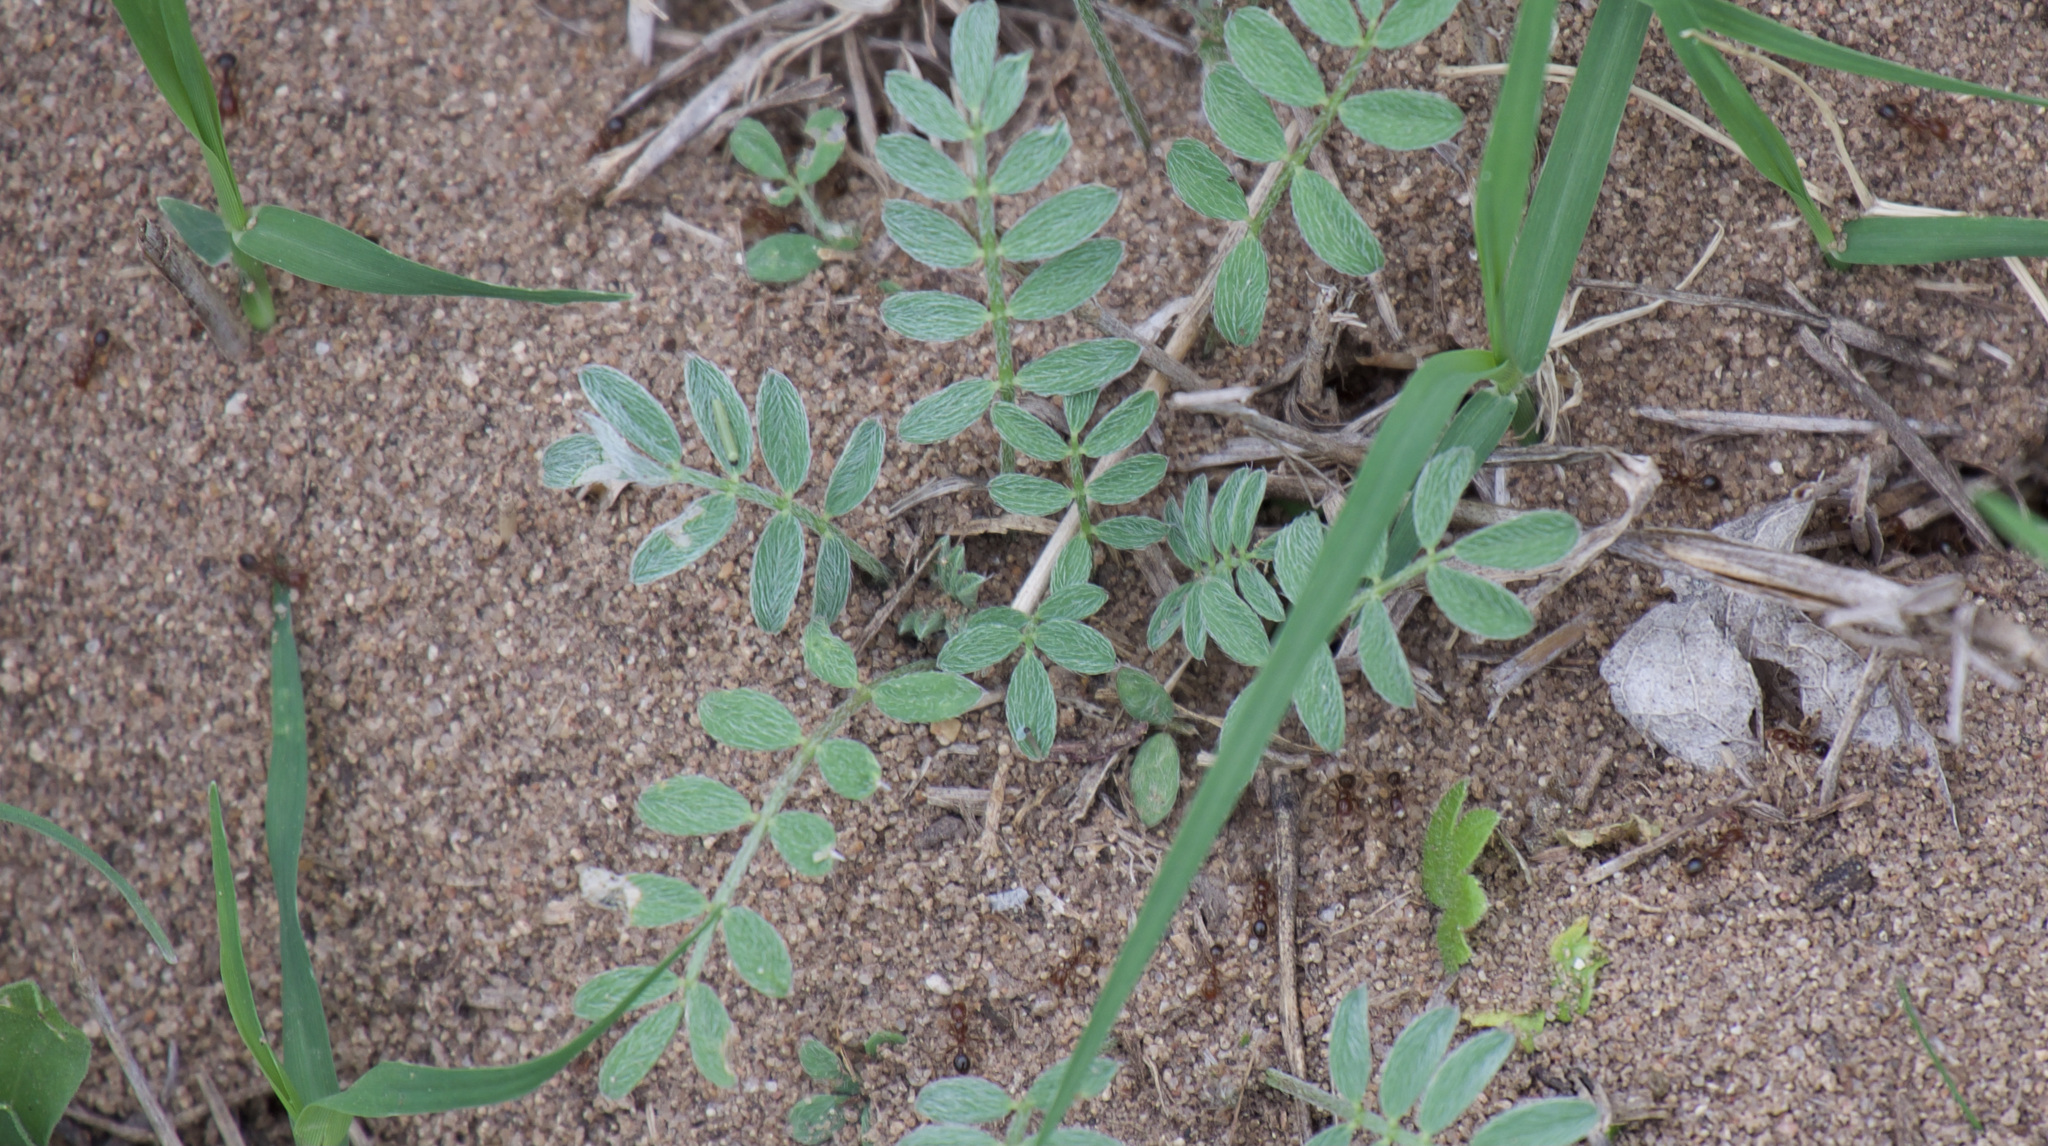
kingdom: Animalia
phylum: Arthropoda
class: Insecta
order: Hymenoptera
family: Formicidae
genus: Solenopsis
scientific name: Solenopsis invicta
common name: Red imported fire ant
